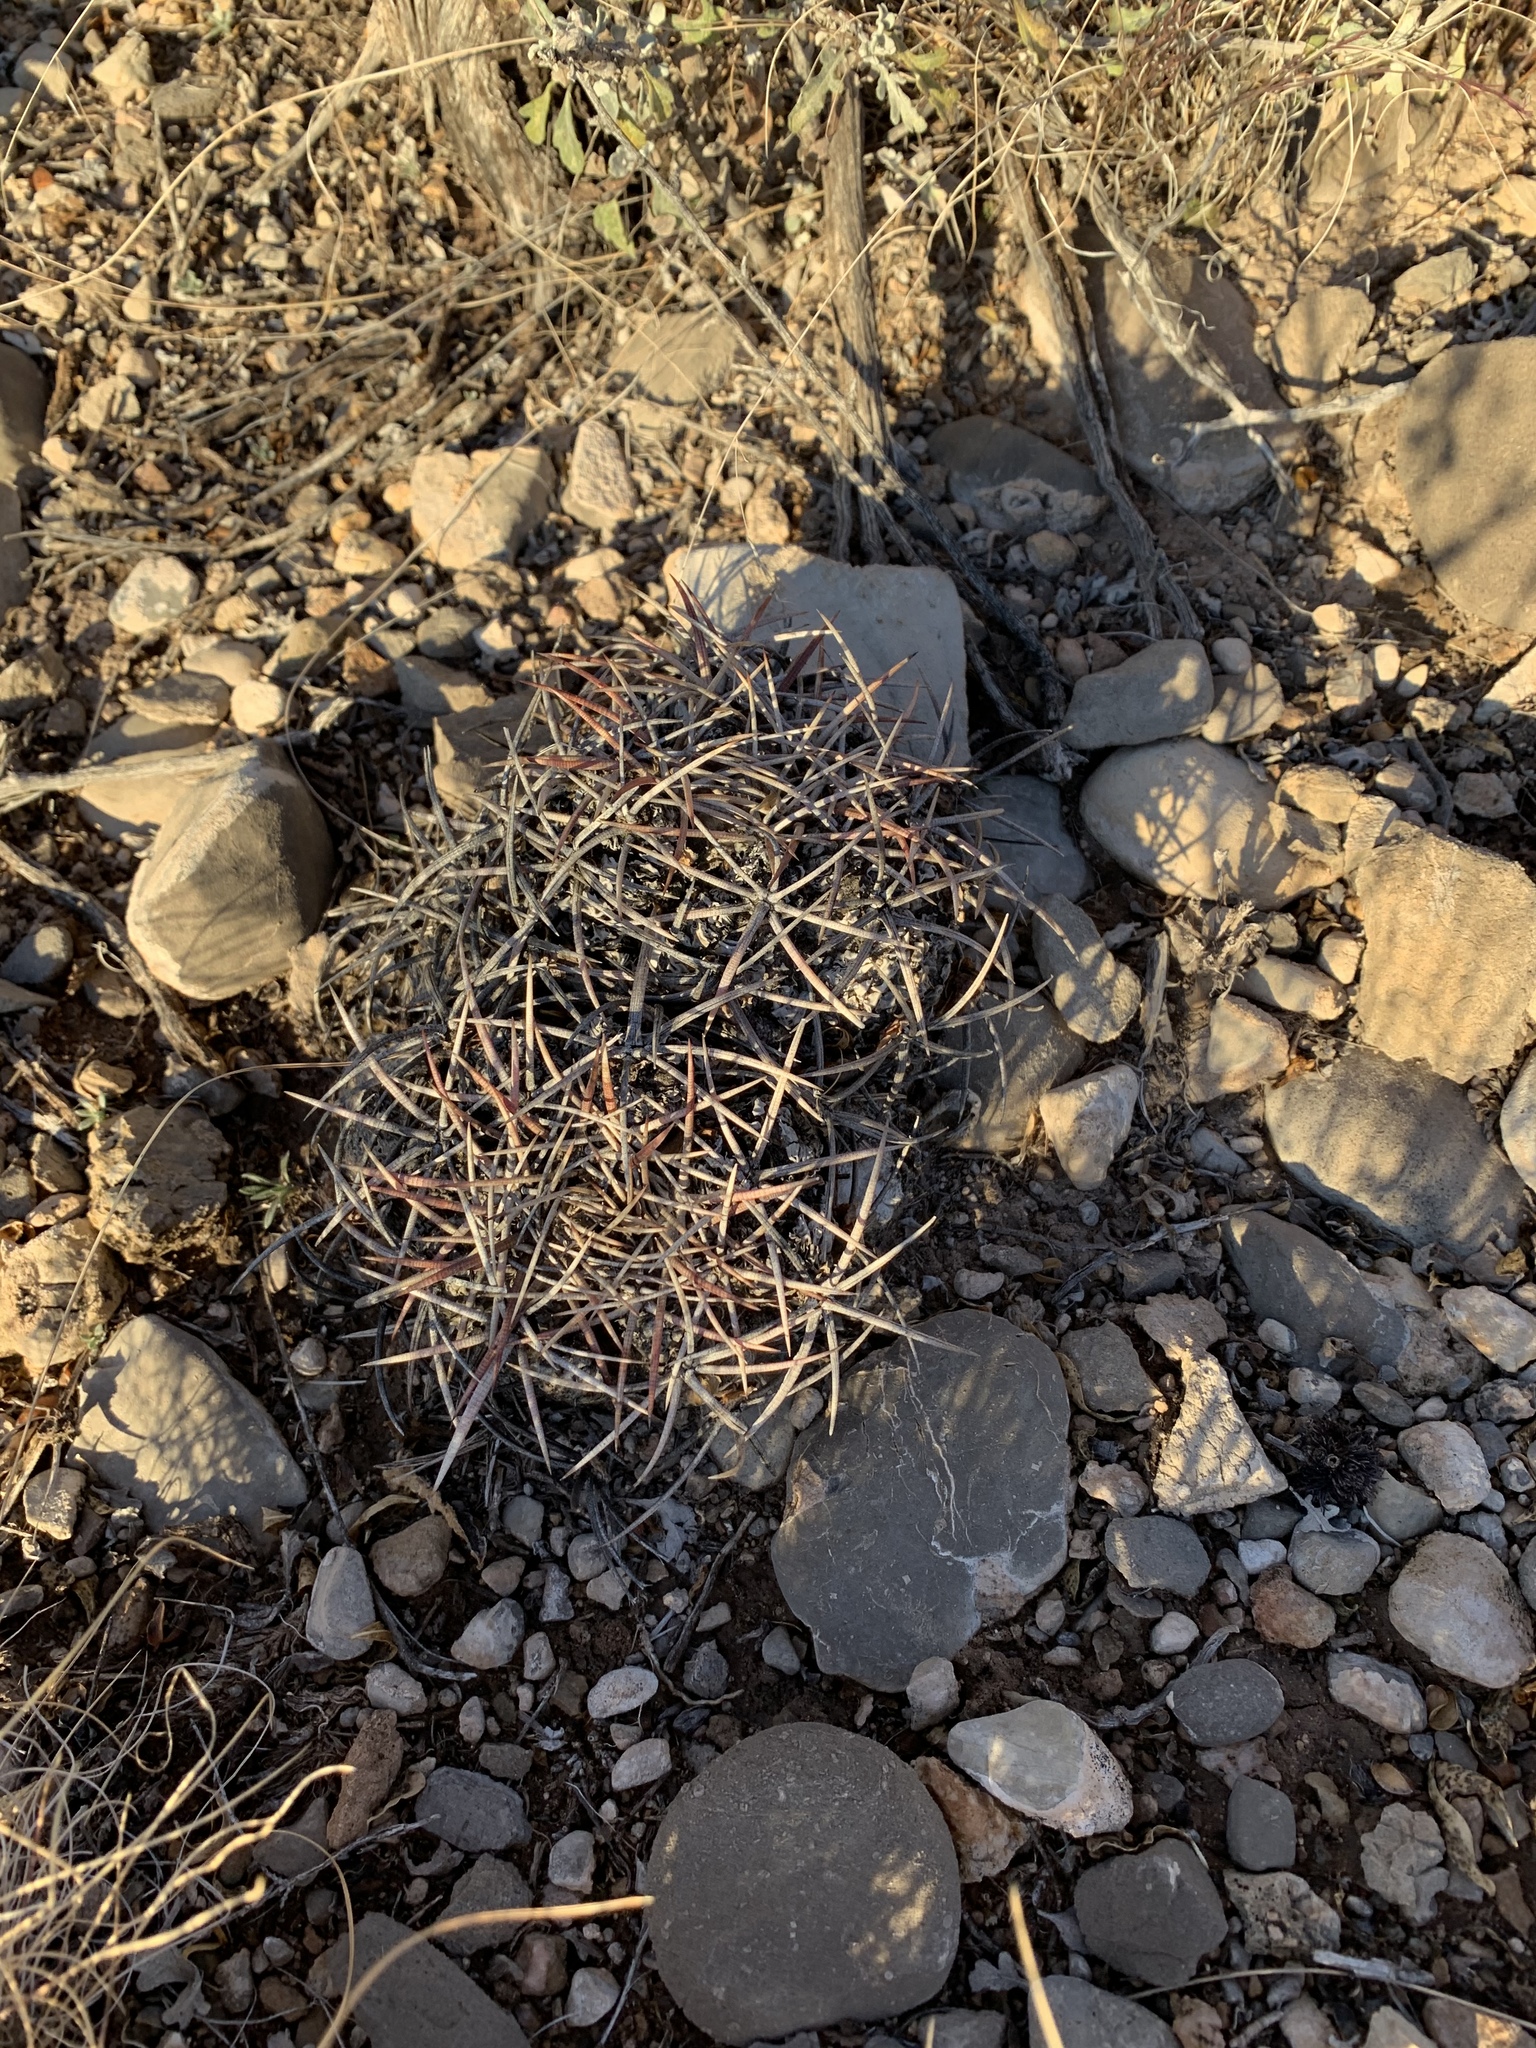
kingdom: Plantae
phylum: Tracheophyta
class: Magnoliopsida
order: Caryophyllales
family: Cactaceae
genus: Echinocactus
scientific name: Echinocactus horizonthalonius
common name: Devilshead
